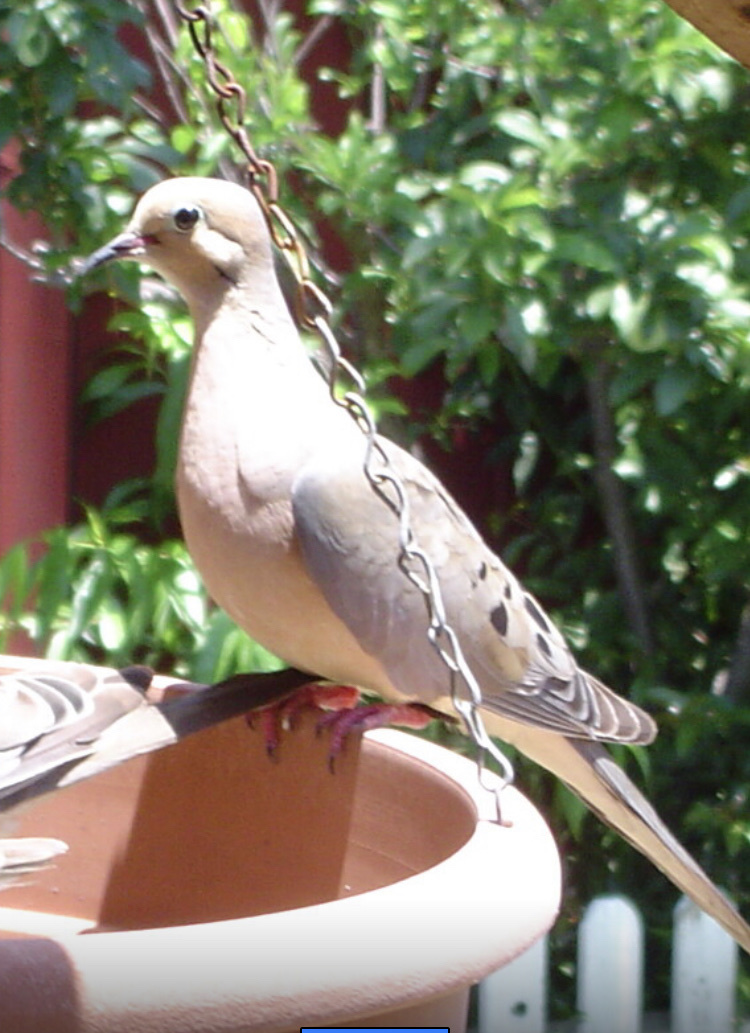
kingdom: Animalia
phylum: Chordata
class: Aves
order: Columbiformes
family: Columbidae
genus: Zenaida
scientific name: Zenaida macroura
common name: Mourning dove
